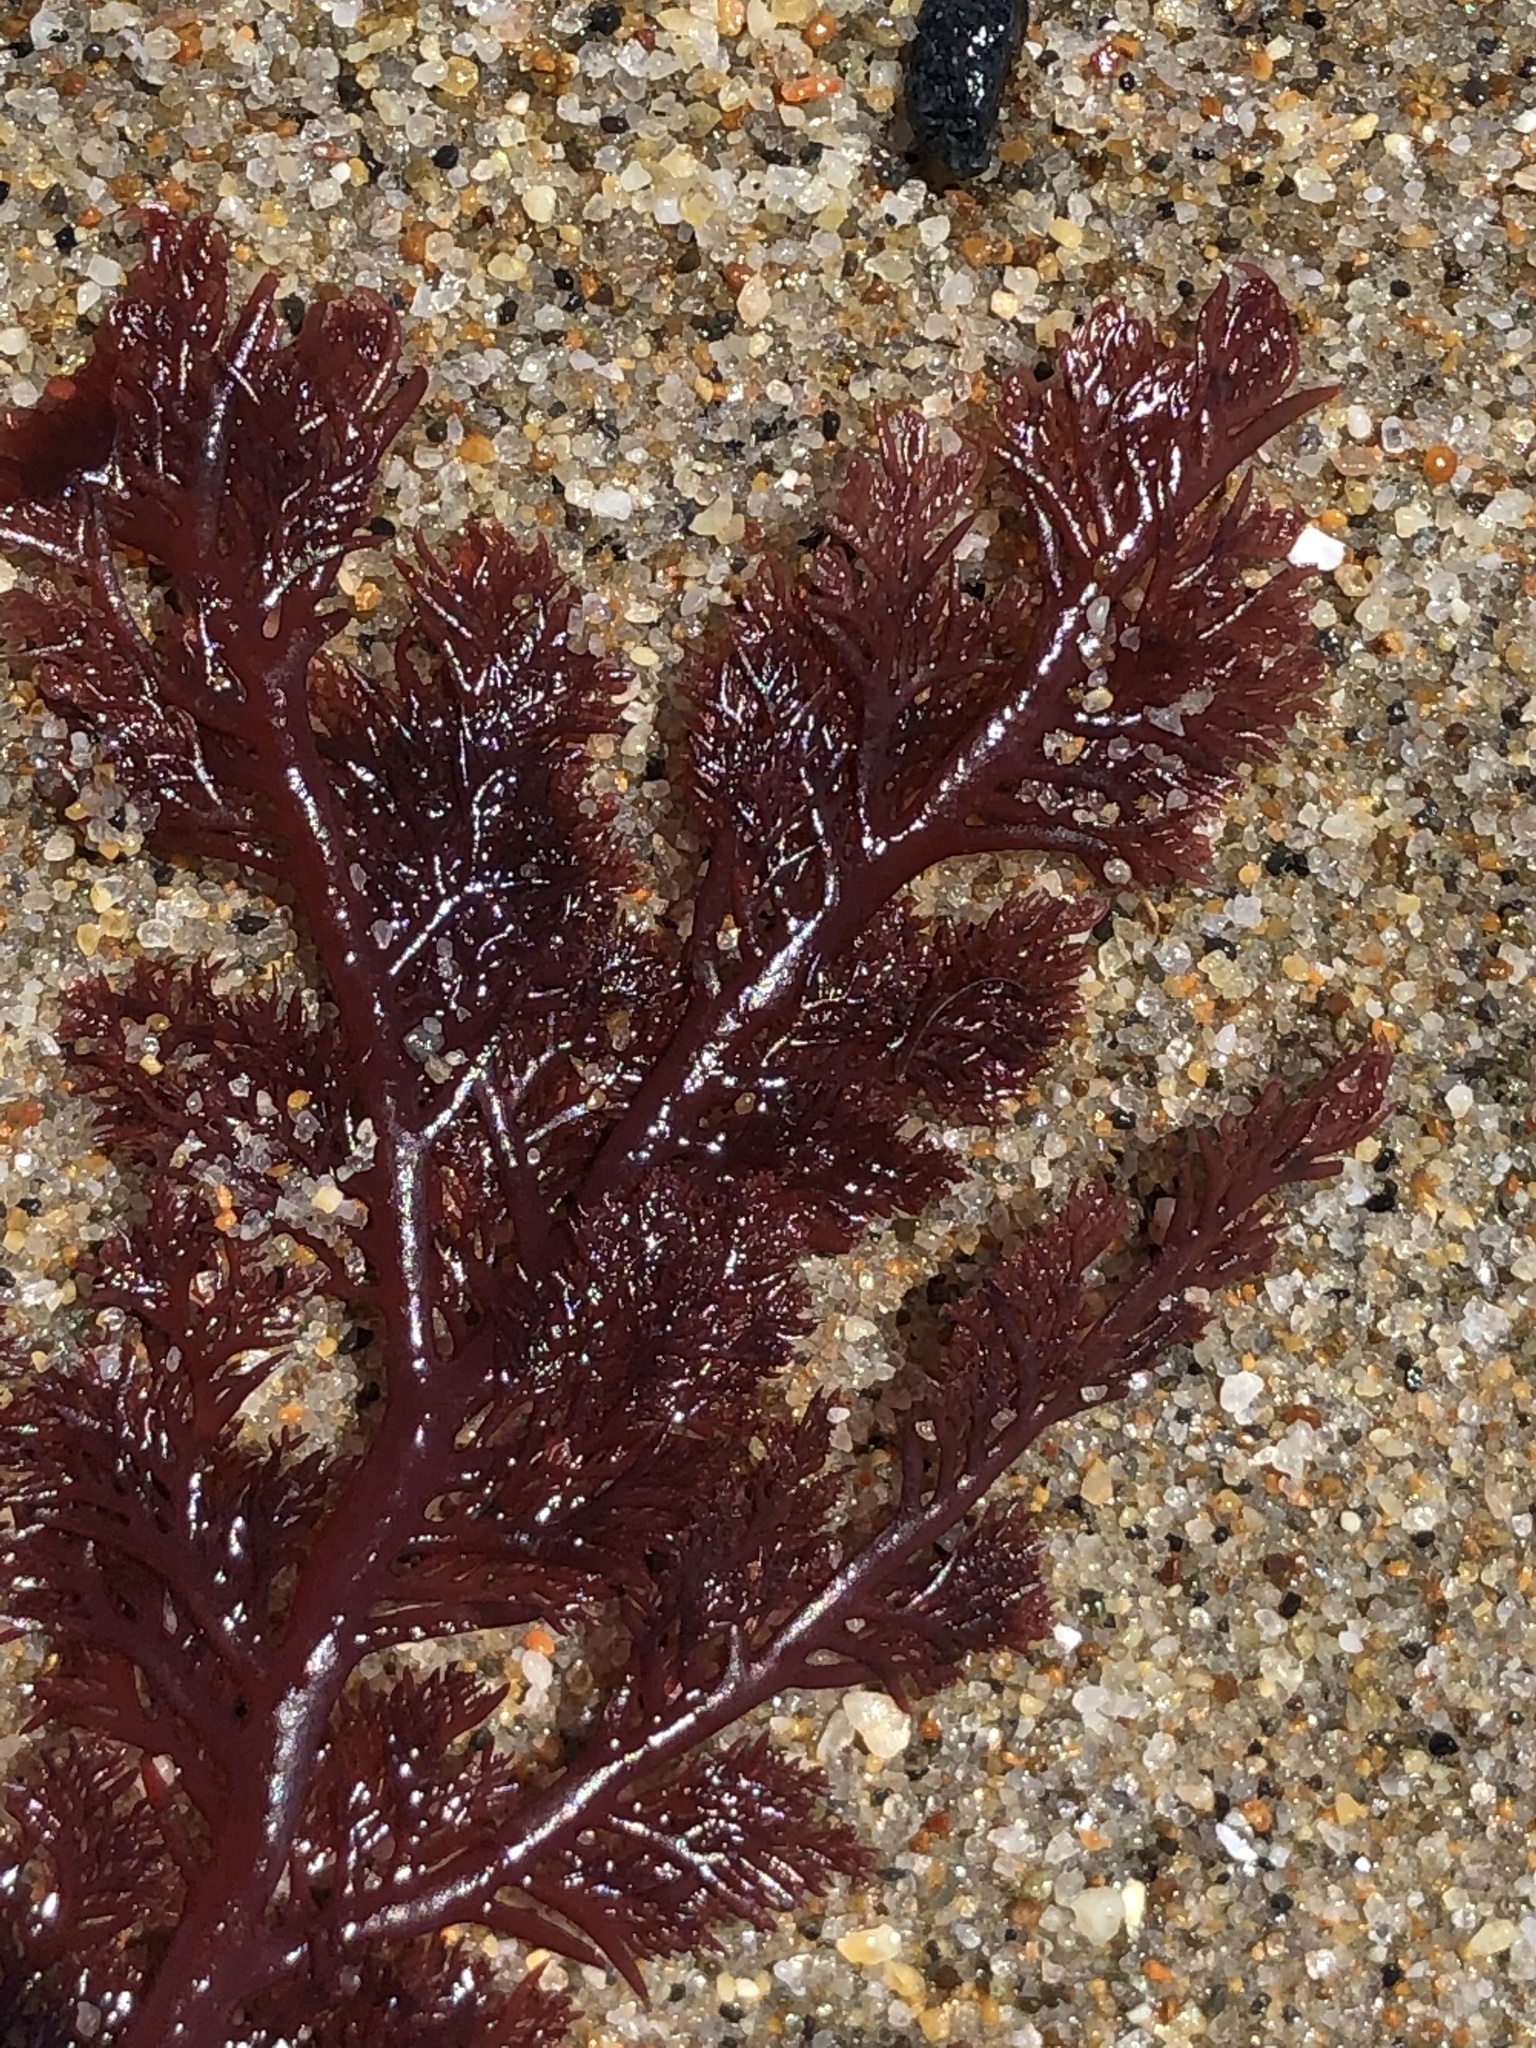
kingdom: Plantae
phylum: Rhodophyta
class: Florideophyceae
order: Plocamiales
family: Plocamiaceae
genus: Plocamium
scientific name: Plocamium cartilagineum
